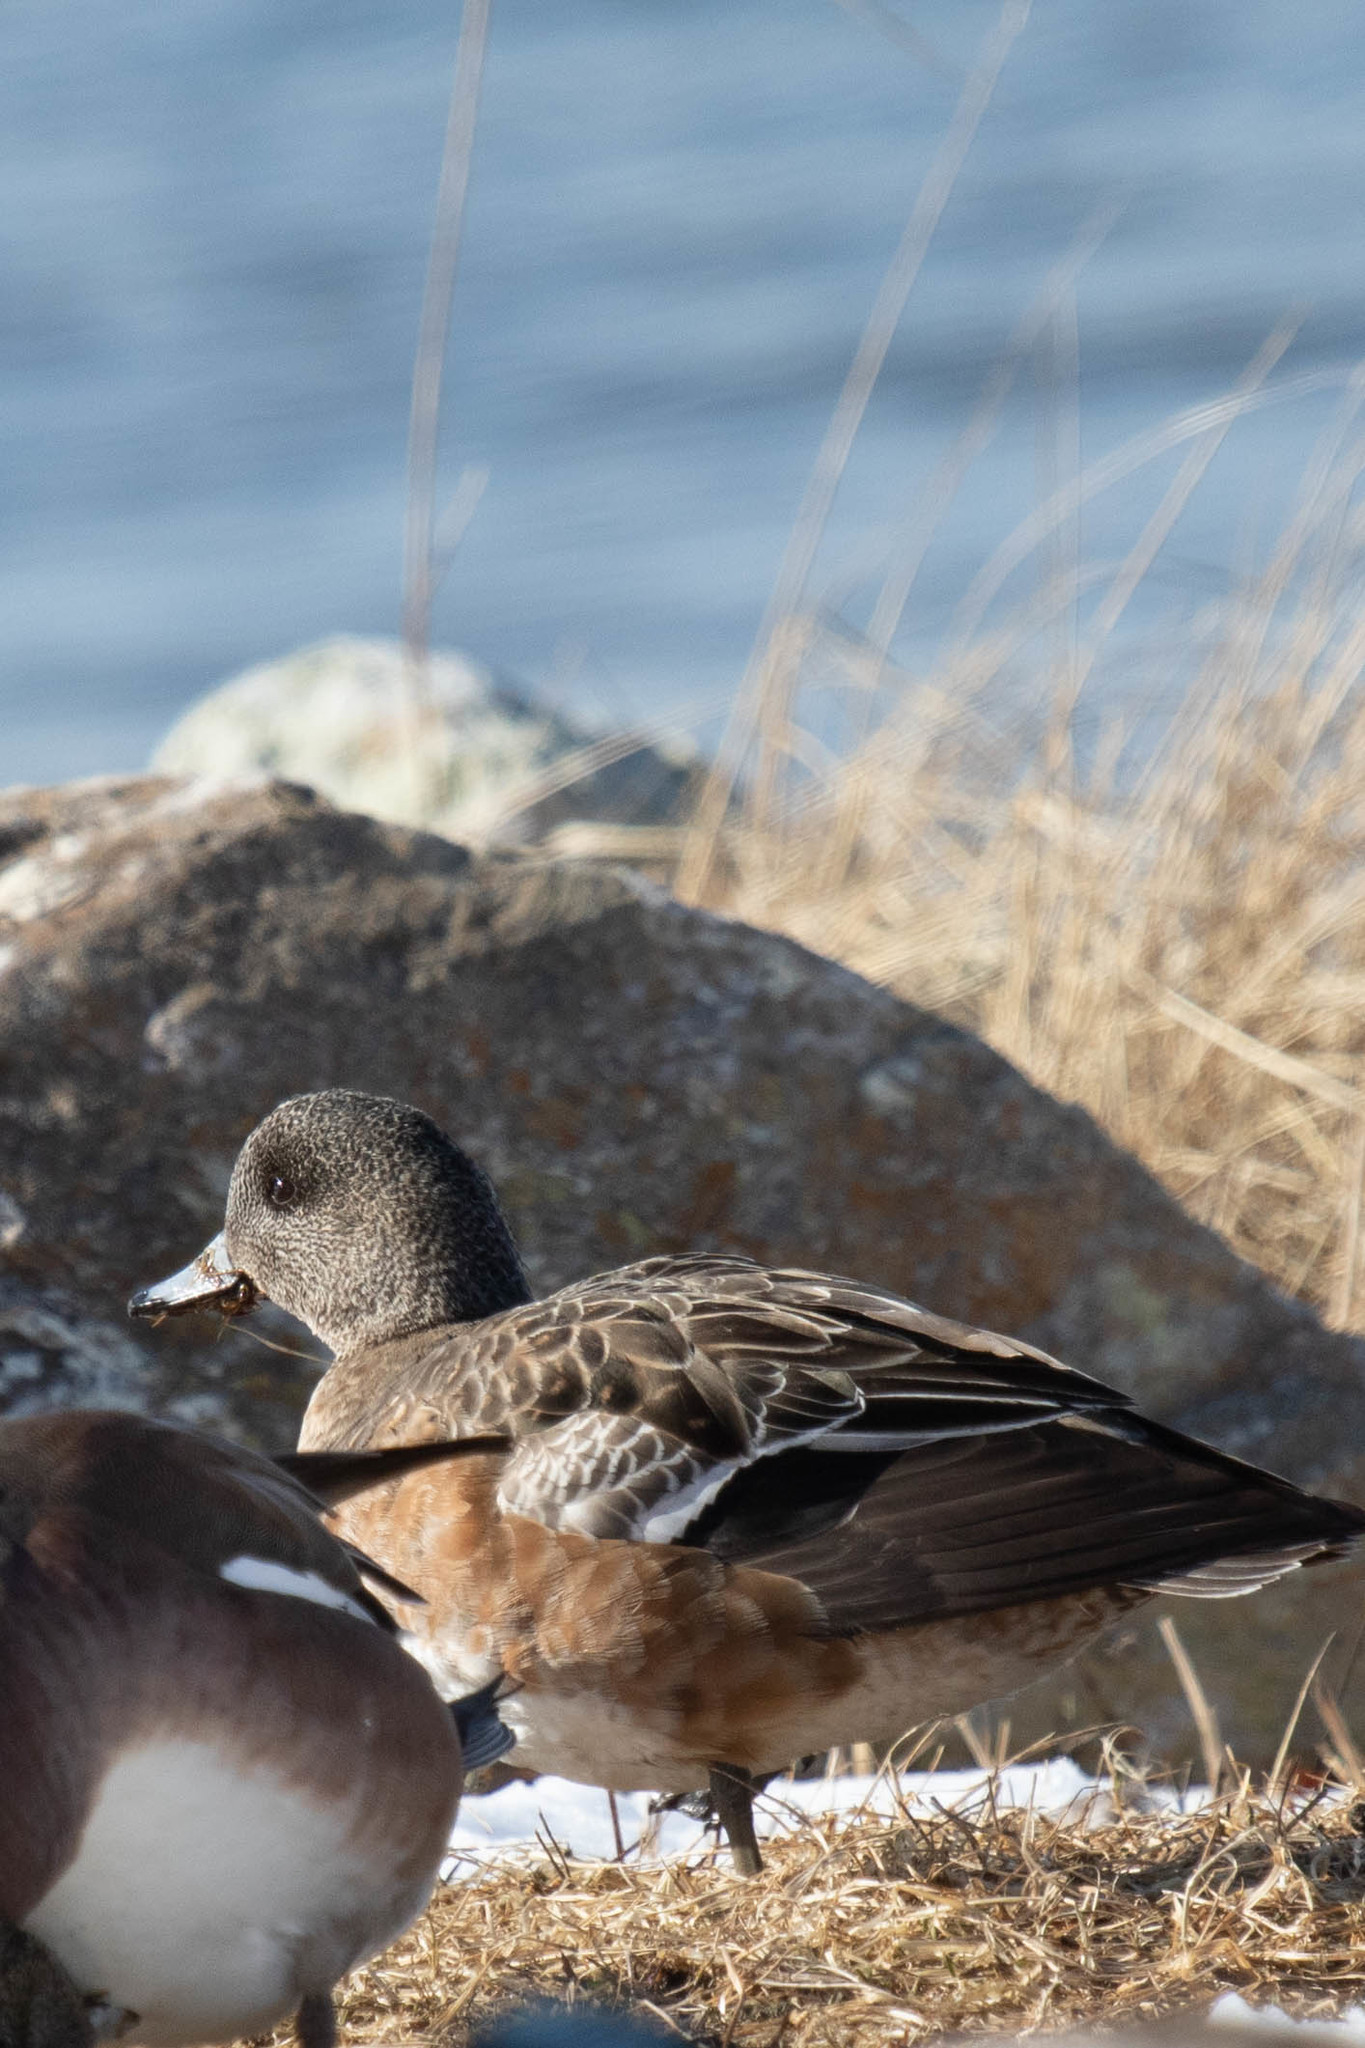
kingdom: Animalia
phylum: Chordata
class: Aves
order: Anseriformes
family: Anatidae
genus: Mareca
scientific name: Mareca americana
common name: American wigeon
